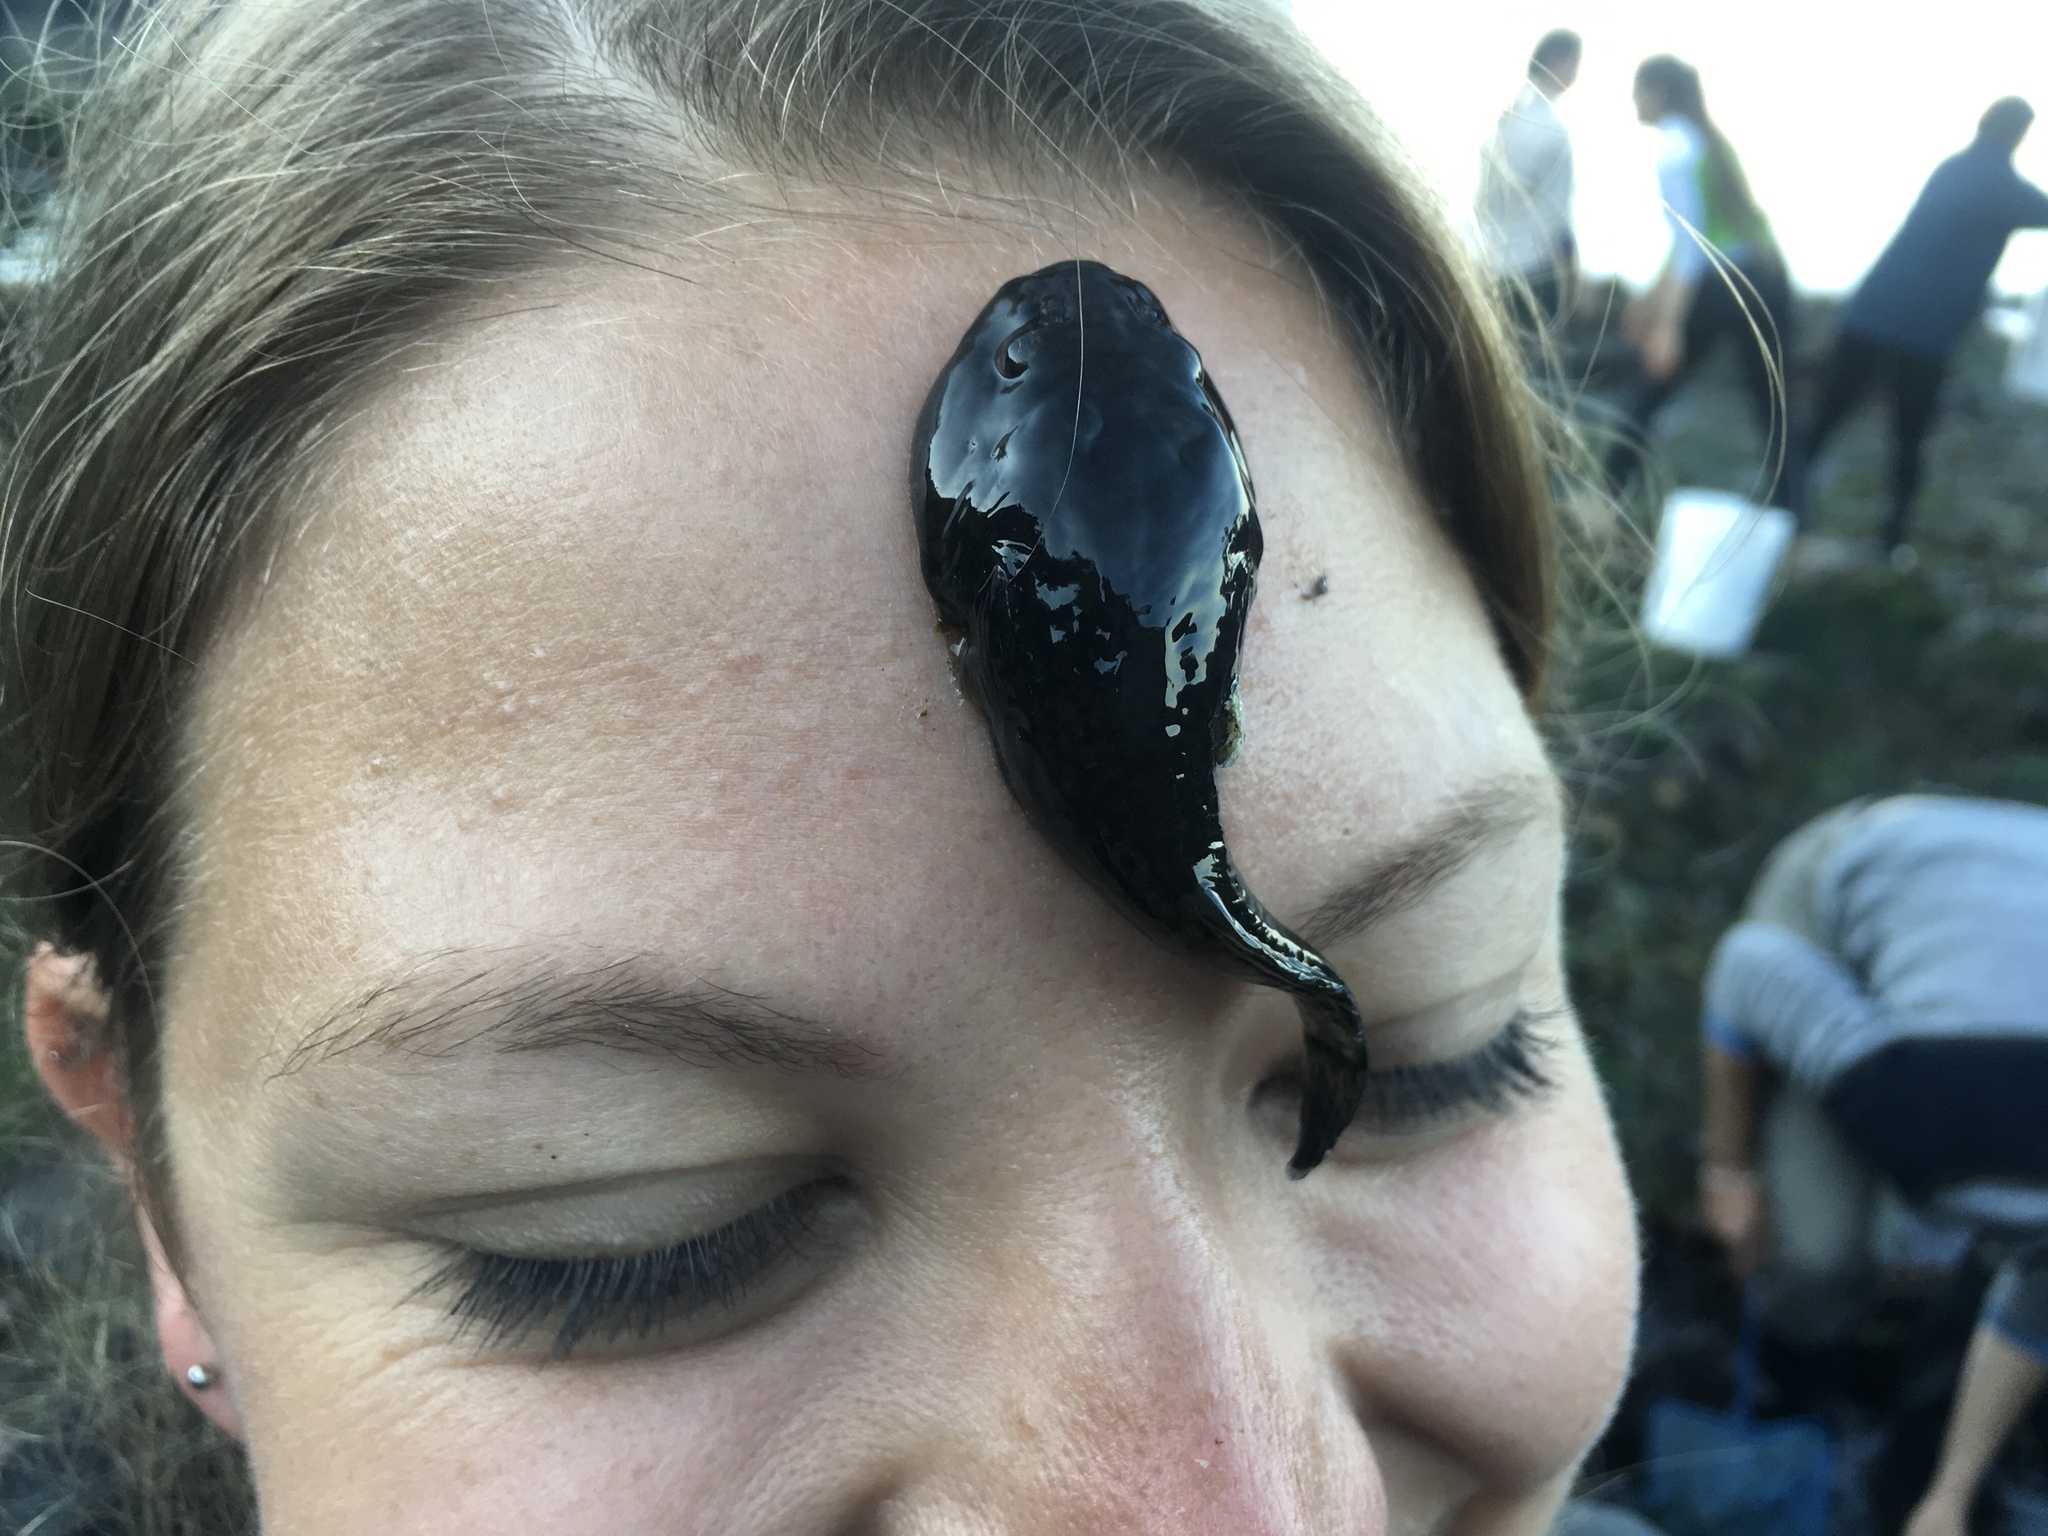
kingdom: Animalia
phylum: Chordata
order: Gobiesociformes
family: Gobiesocidae
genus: Gobiesox
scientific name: Gobiesox maeandricus
